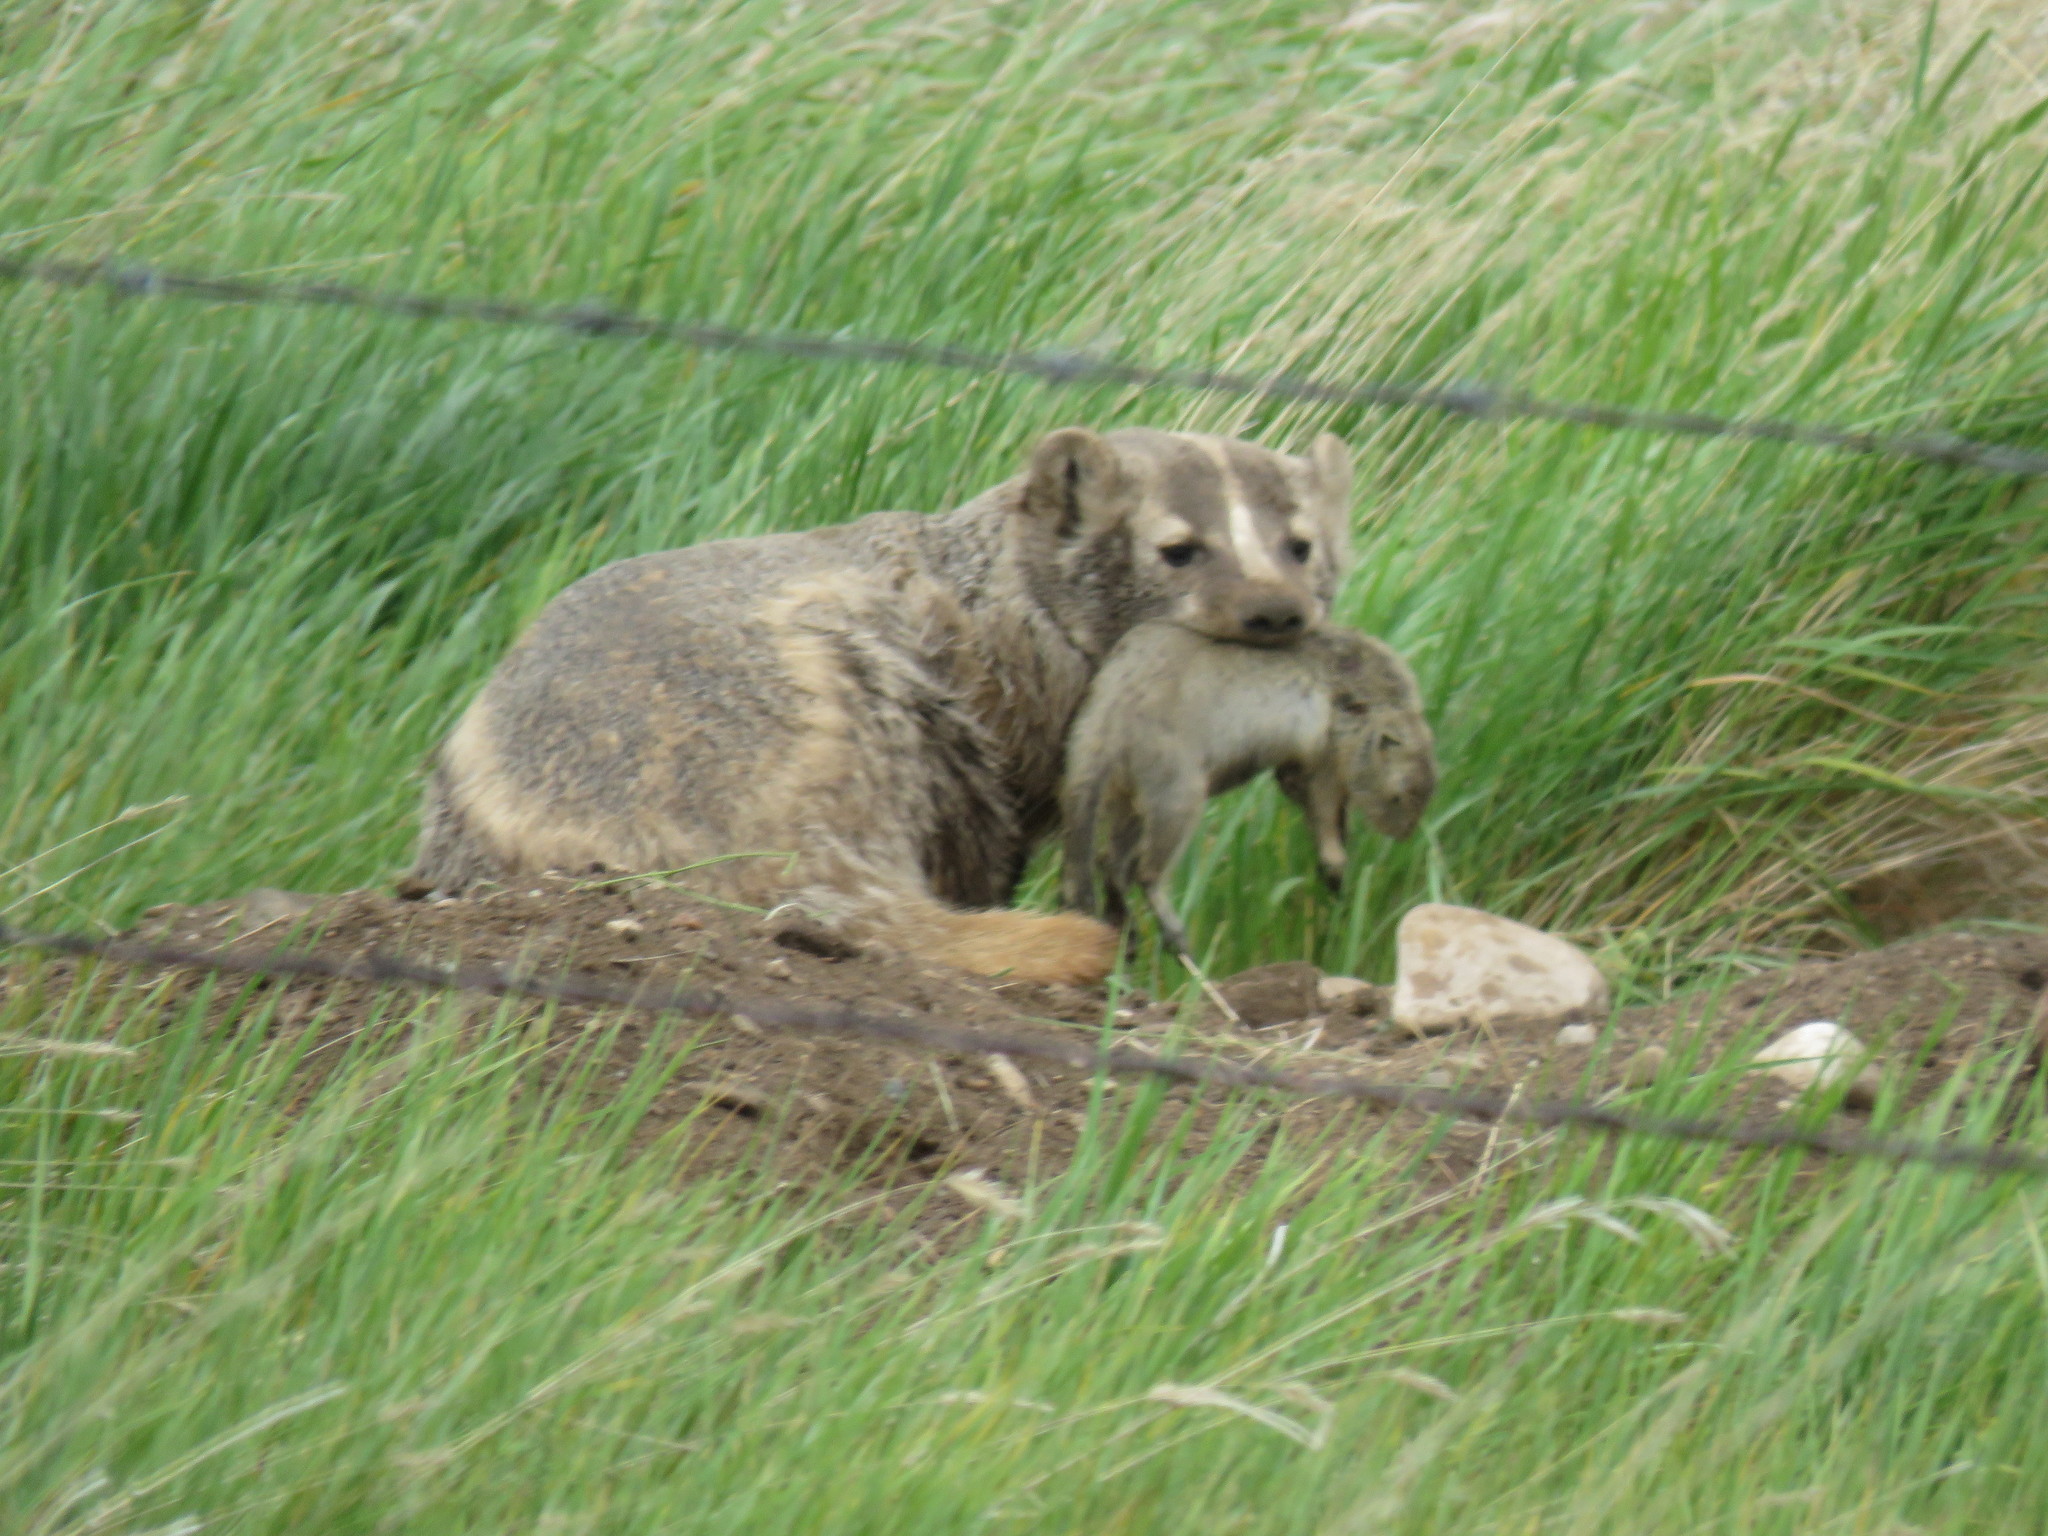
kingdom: Animalia
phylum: Chordata
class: Mammalia
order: Carnivora
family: Mustelidae
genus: Taxidea
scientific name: Taxidea taxus
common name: American badger
